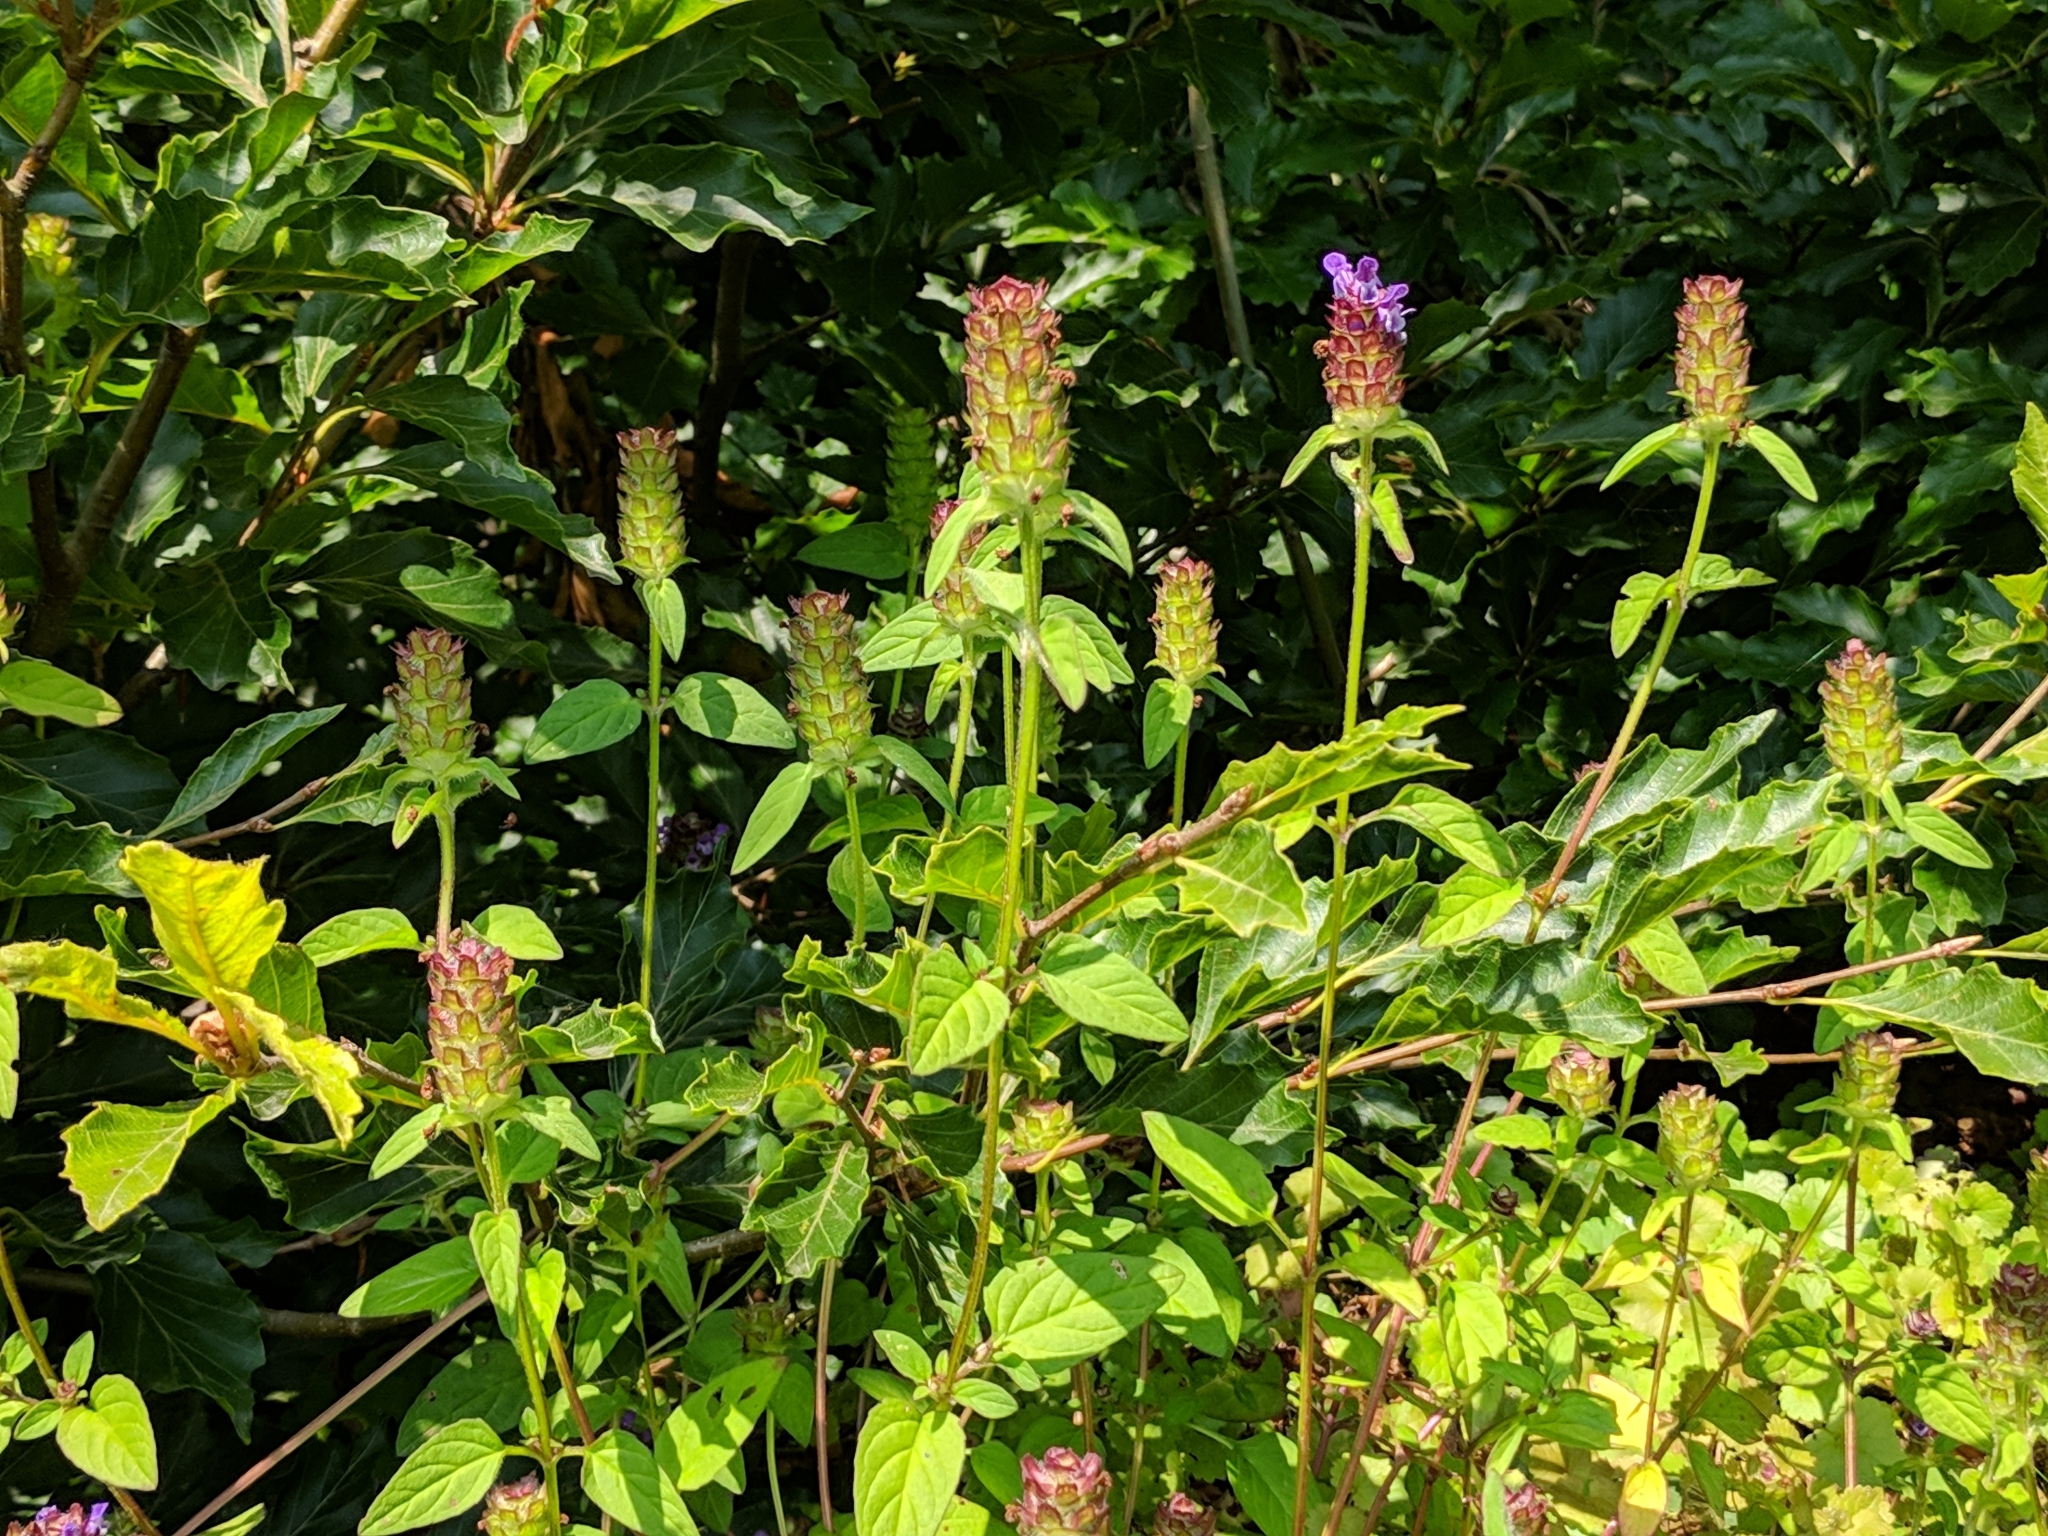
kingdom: Plantae
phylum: Tracheophyta
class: Magnoliopsida
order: Lamiales
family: Lamiaceae
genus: Prunella
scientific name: Prunella vulgaris
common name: Heal-all
